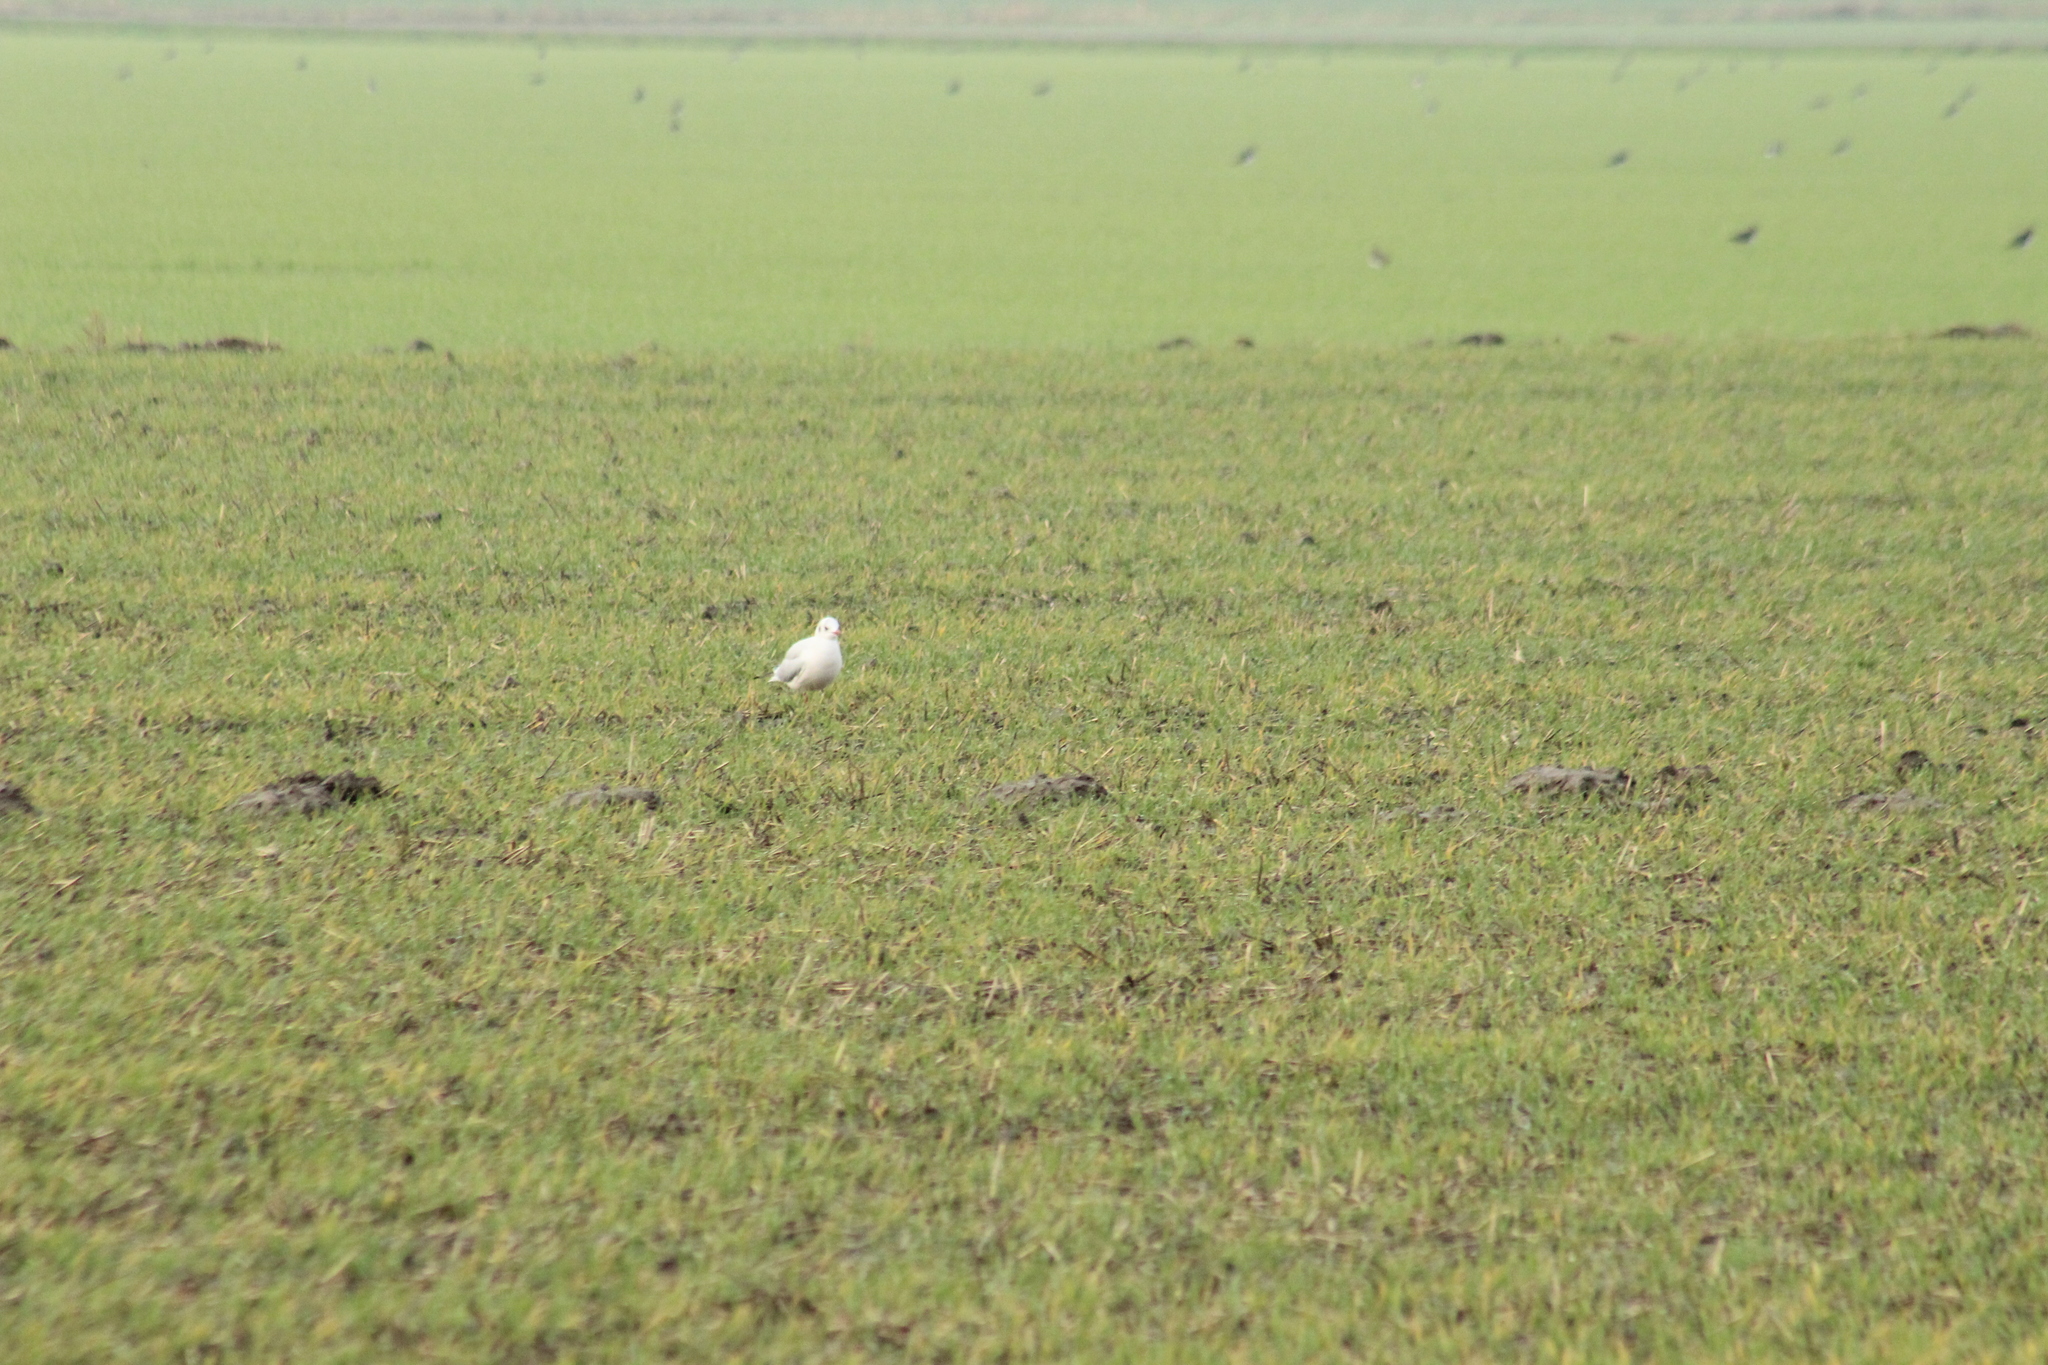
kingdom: Animalia
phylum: Chordata
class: Aves
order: Charadriiformes
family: Laridae
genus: Chroicocephalus
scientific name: Chroicocephalus ridibundus
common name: Black-headed gull
